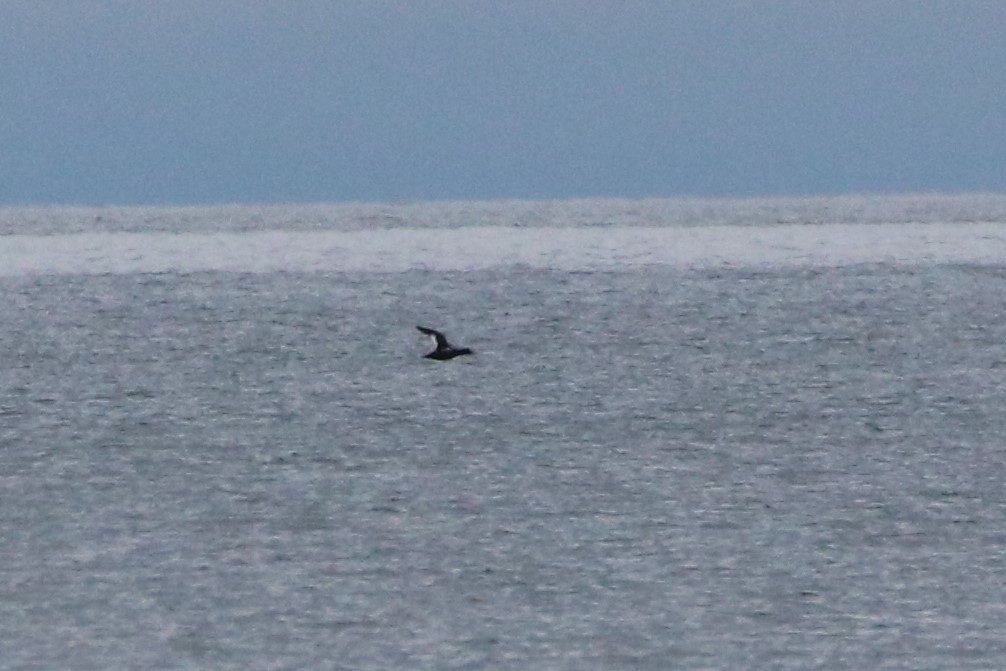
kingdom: Animalia
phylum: Chordata
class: Aves
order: Anseriformes
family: Anatidae
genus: Melanitta
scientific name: Melanitta deglandi
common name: White-winged scoter
